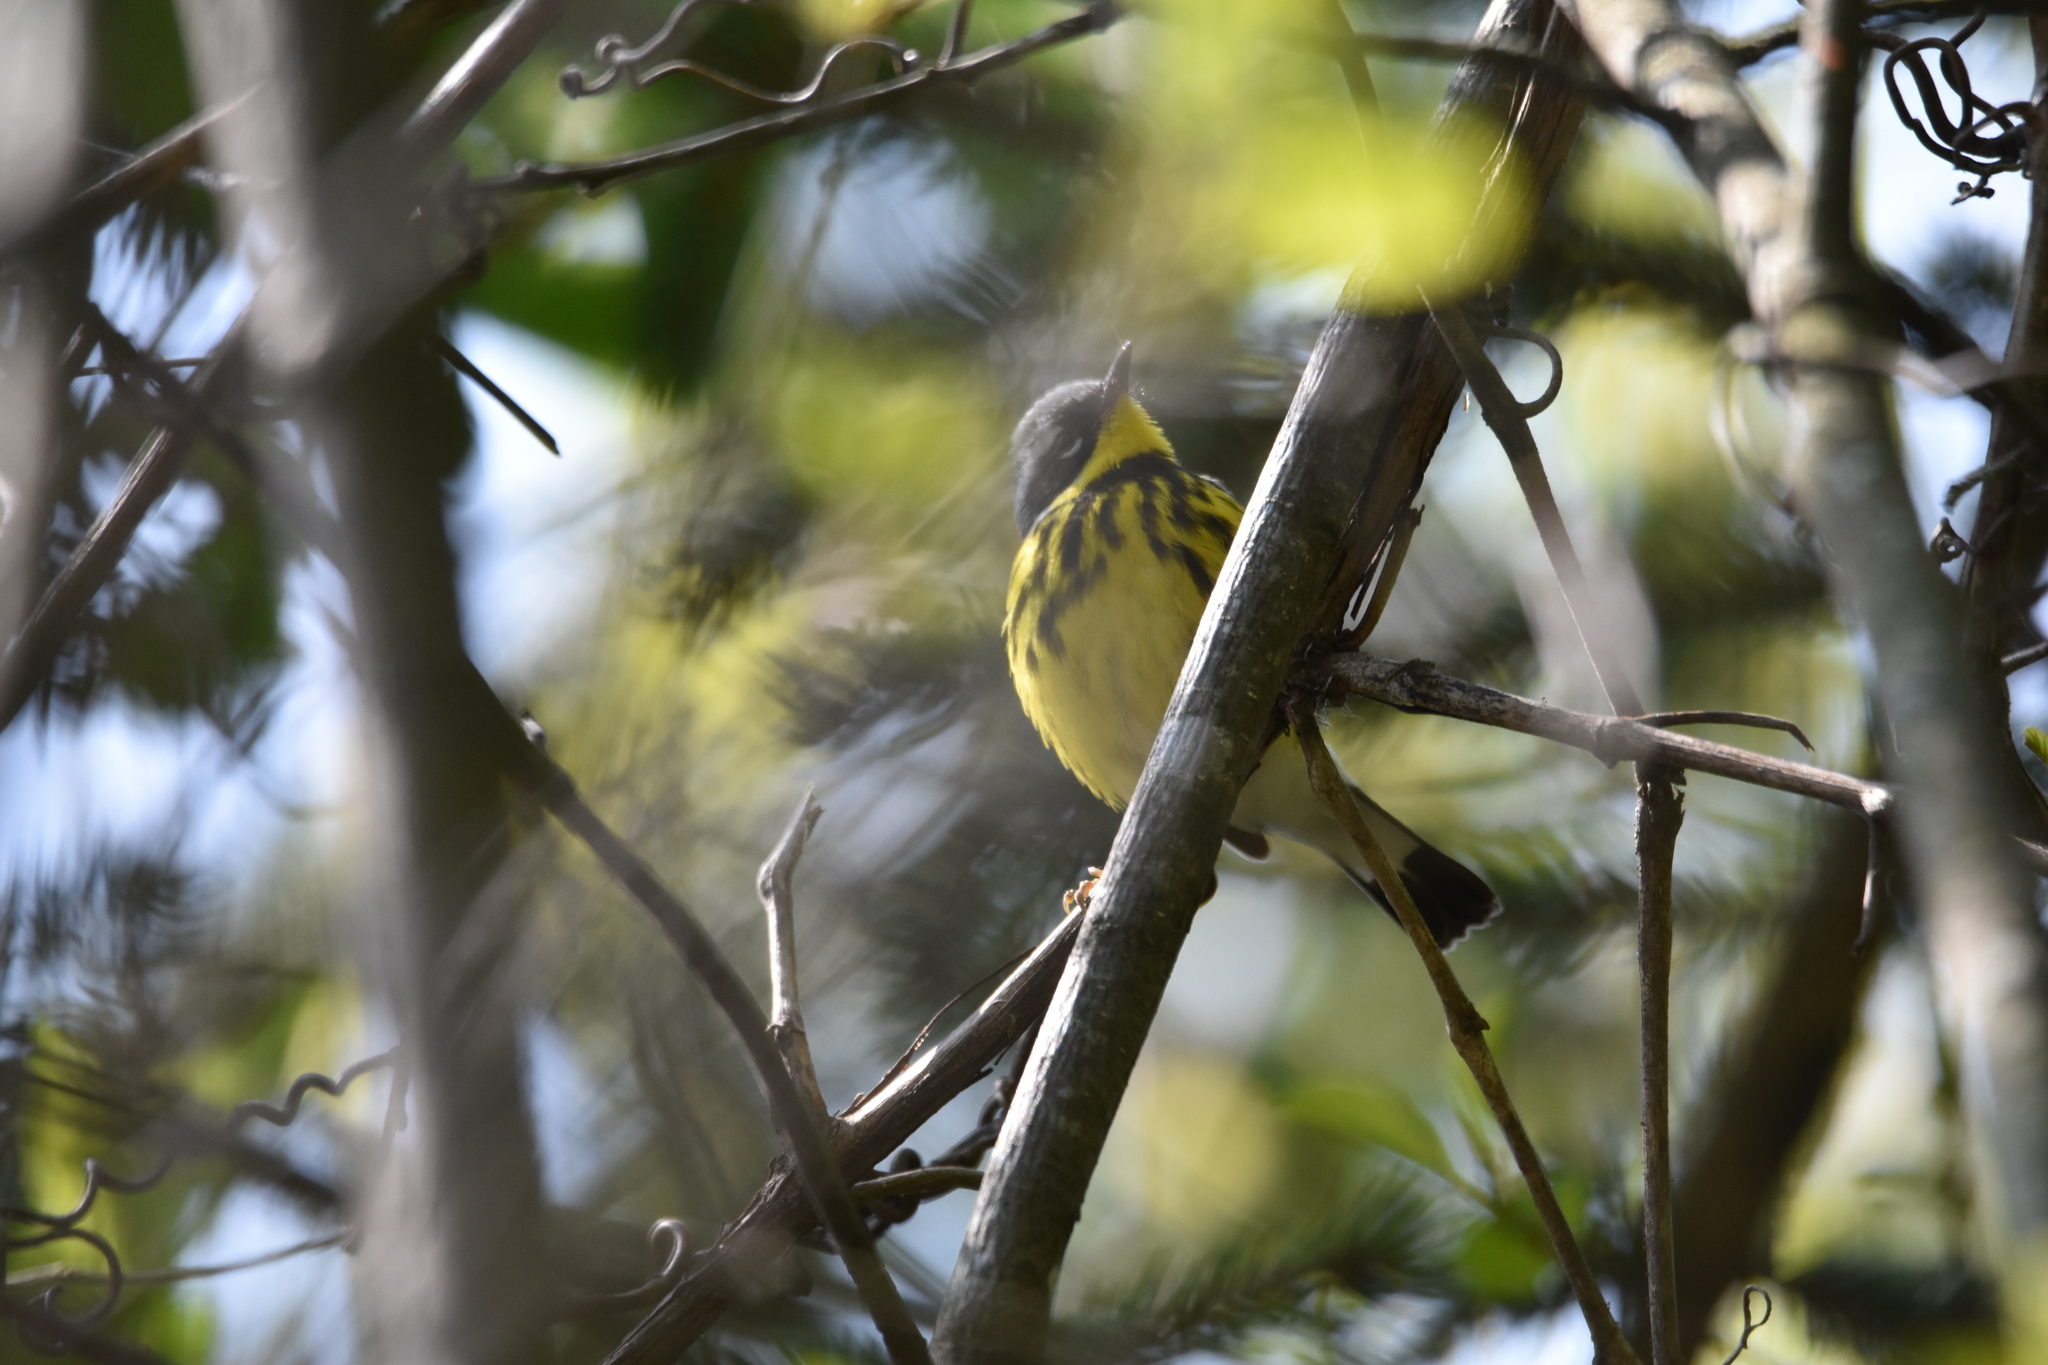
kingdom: Animalia
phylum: Chordata
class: Aves
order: Passeriformes
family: Parulidae
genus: Setophaga
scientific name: Setophaga magnolia
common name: Magnolia warbler
